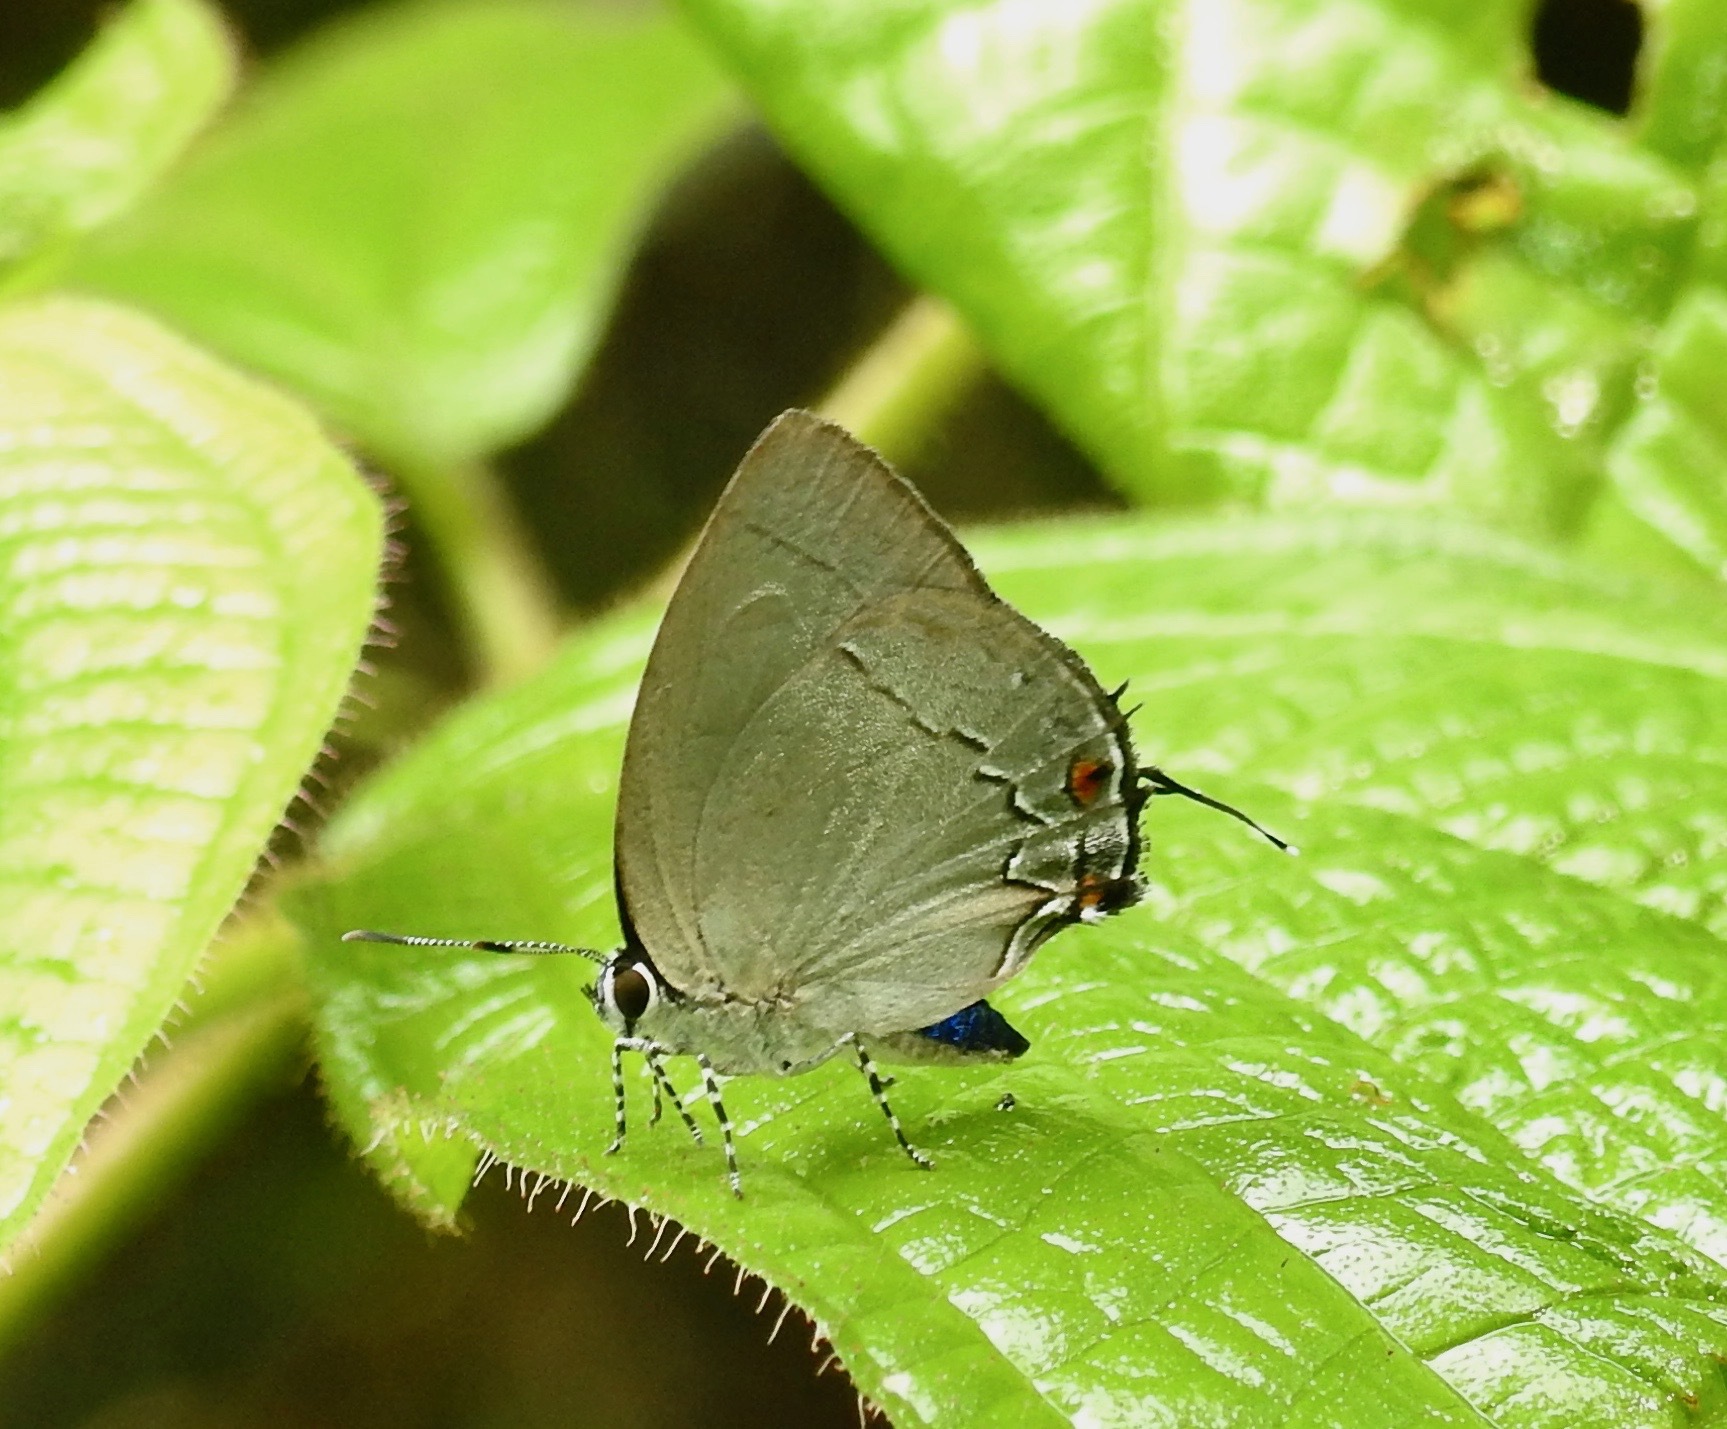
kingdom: Animalia
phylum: Arthropoda
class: Insecta
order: Lepidoptera
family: Lycaenidae
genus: Thecla
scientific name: Thecla lydus
